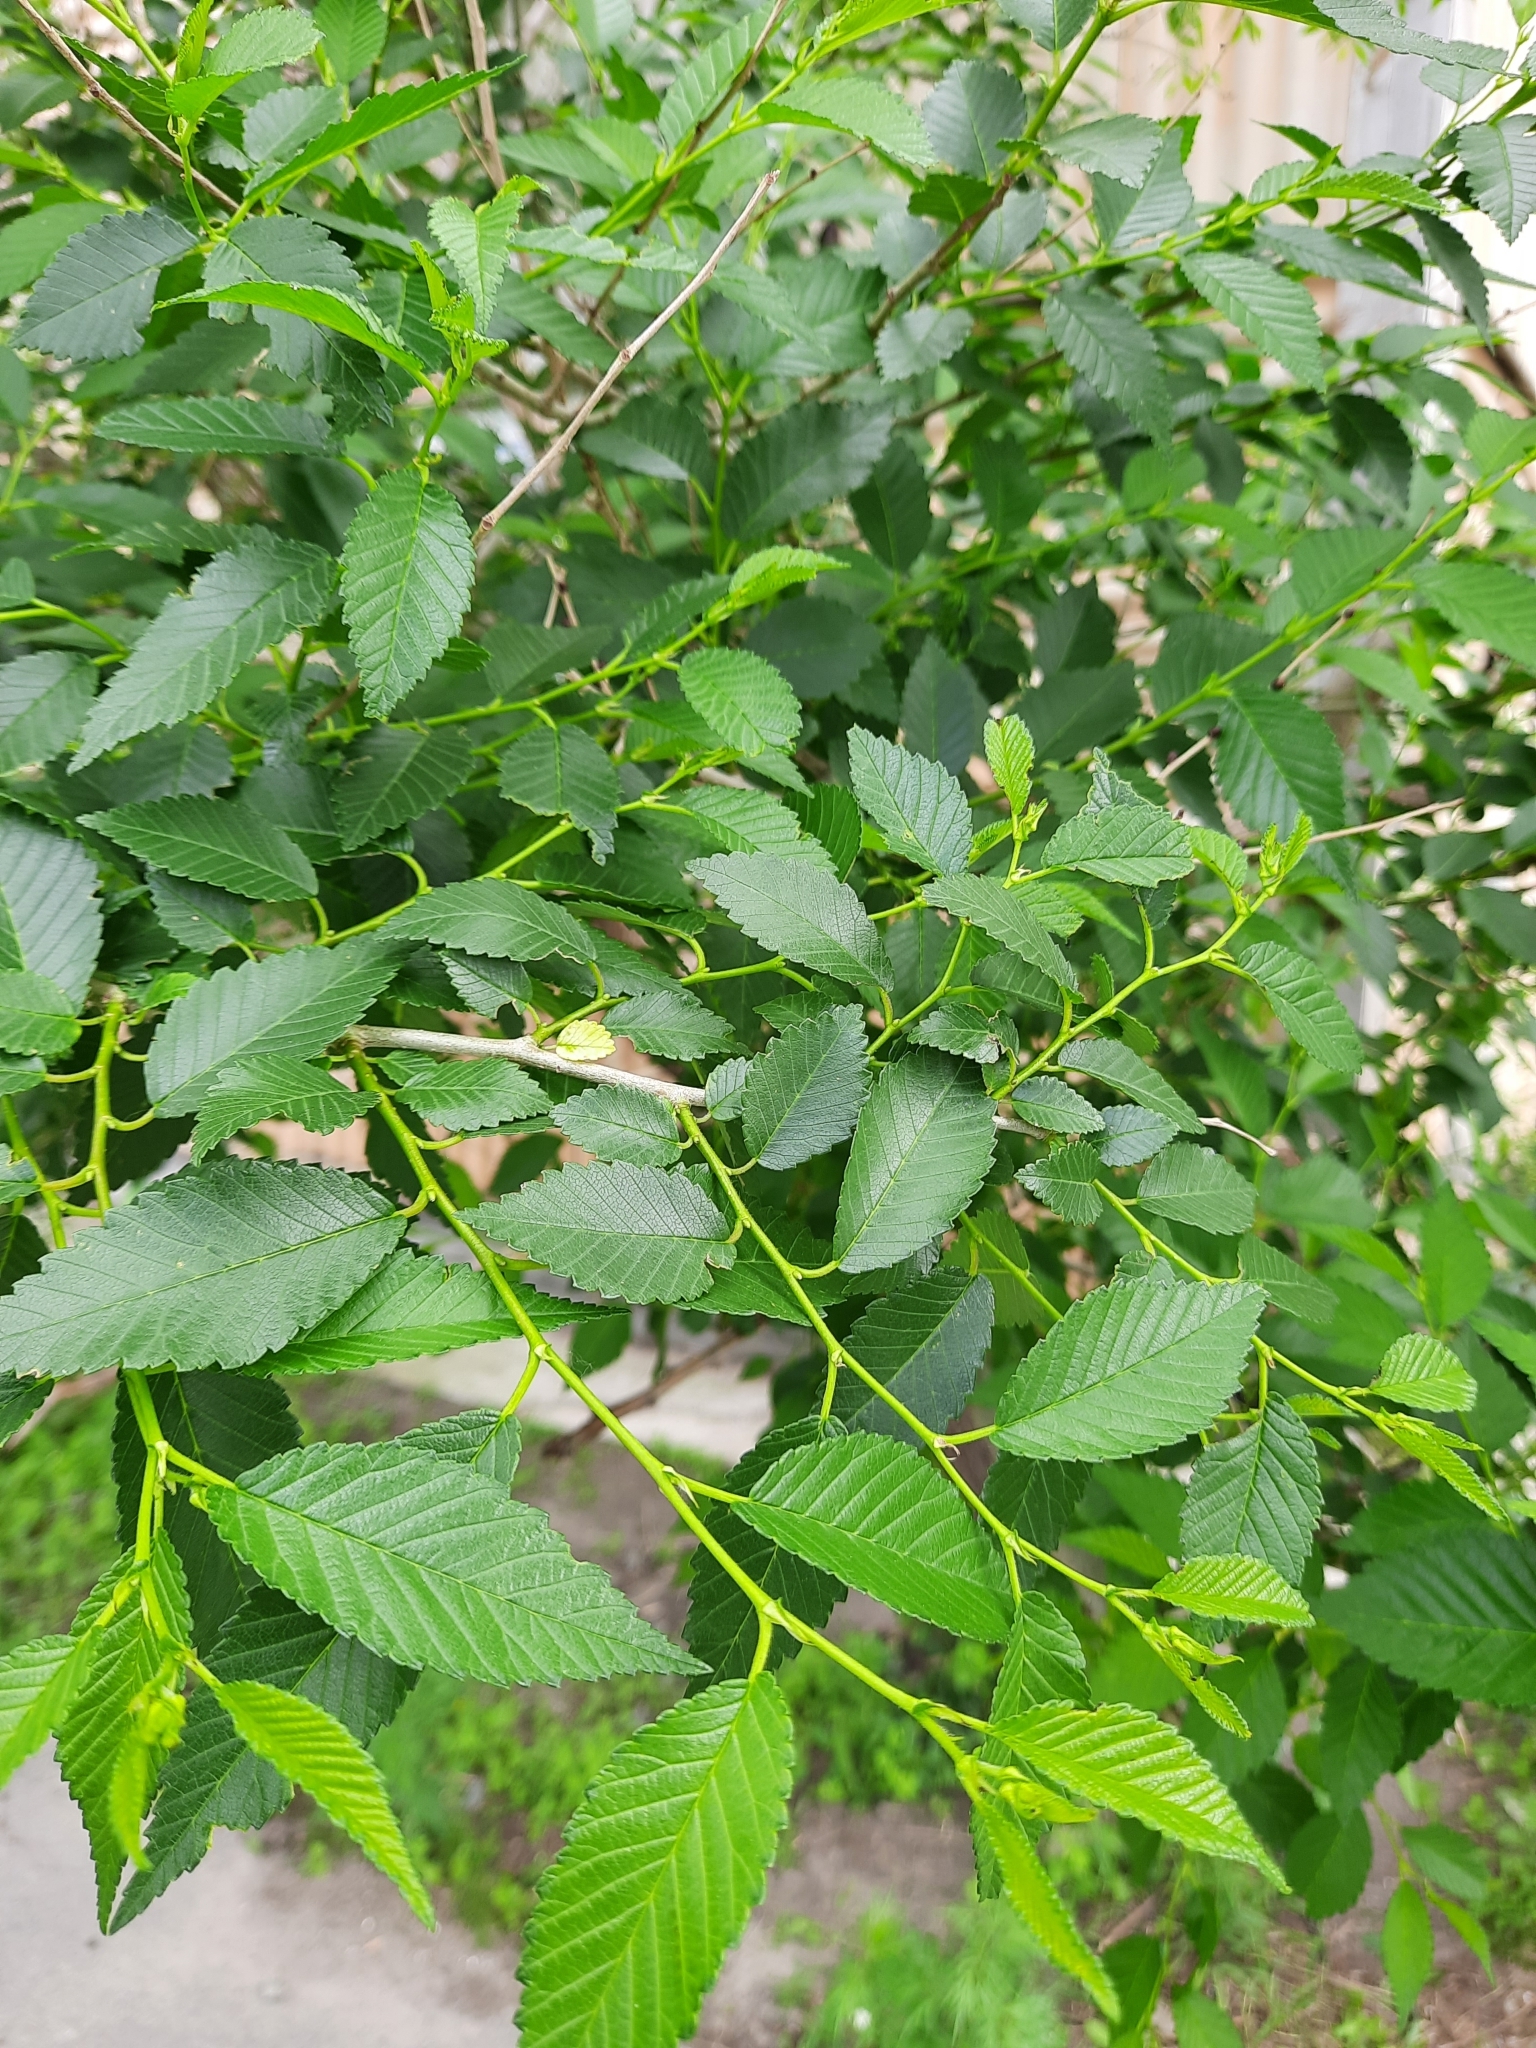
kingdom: Plantae
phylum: Tracheophyta
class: Magnoliopsida
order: Rosales
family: Ulmaceae
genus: Ulmus
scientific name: Ulmus pumila
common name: Siberian elm
